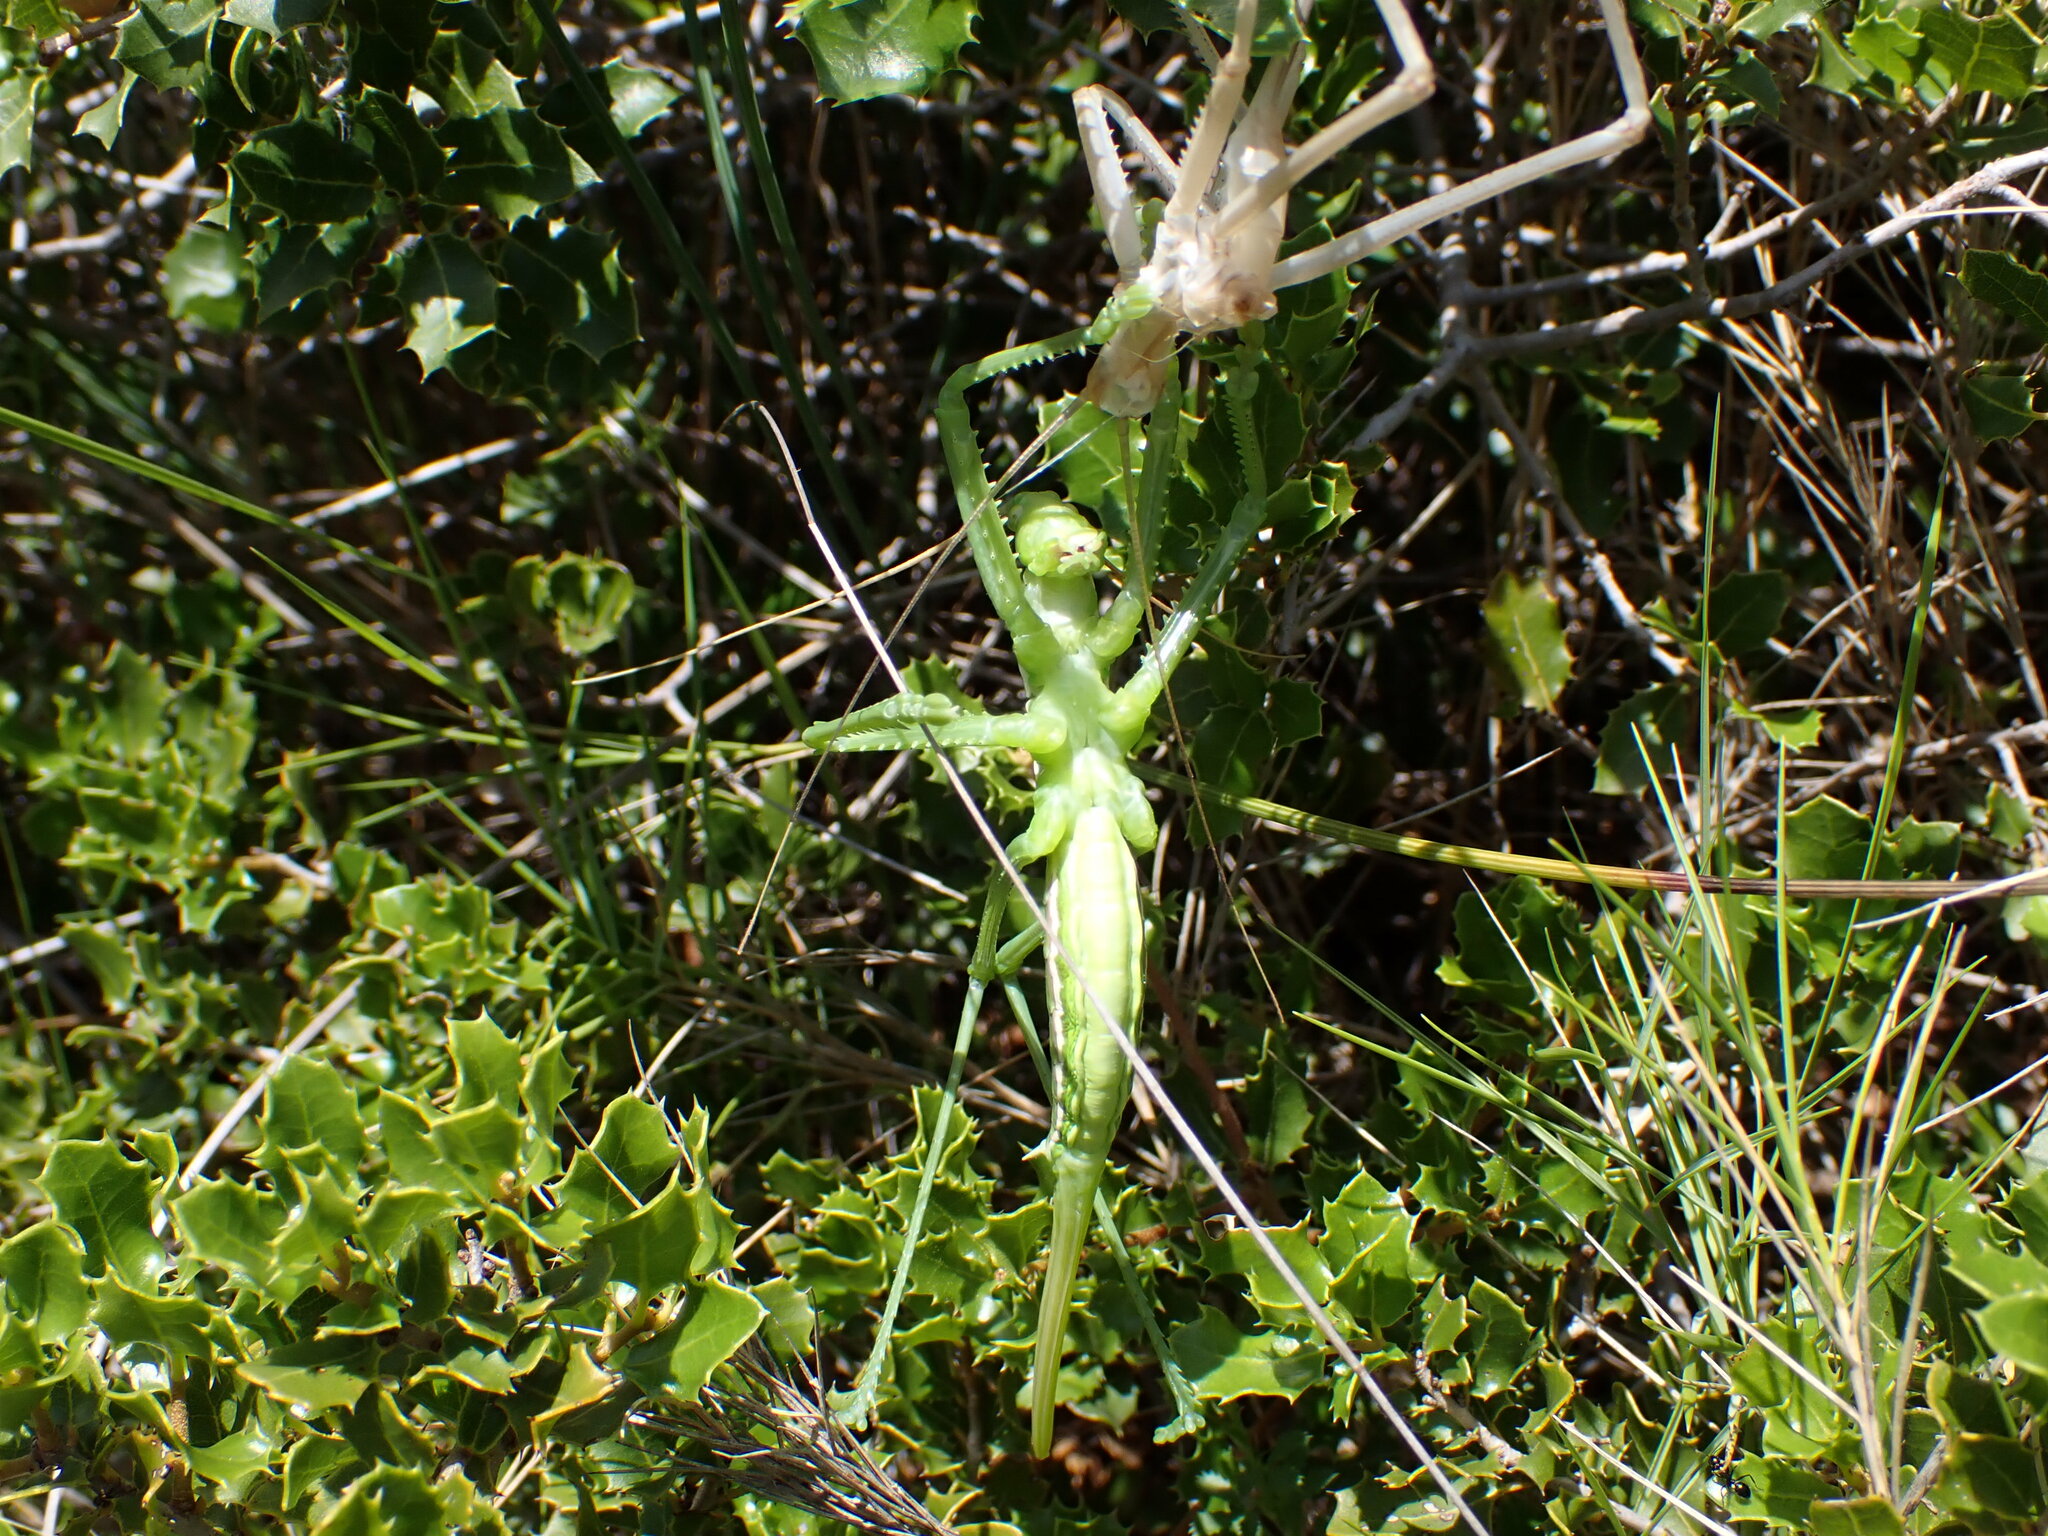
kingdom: Animalia
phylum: Arthropoda
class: Insecta
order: Orthoptera
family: Tettigoniidae
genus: Saga
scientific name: Saga pedo
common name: Common predatory bush-cricket
